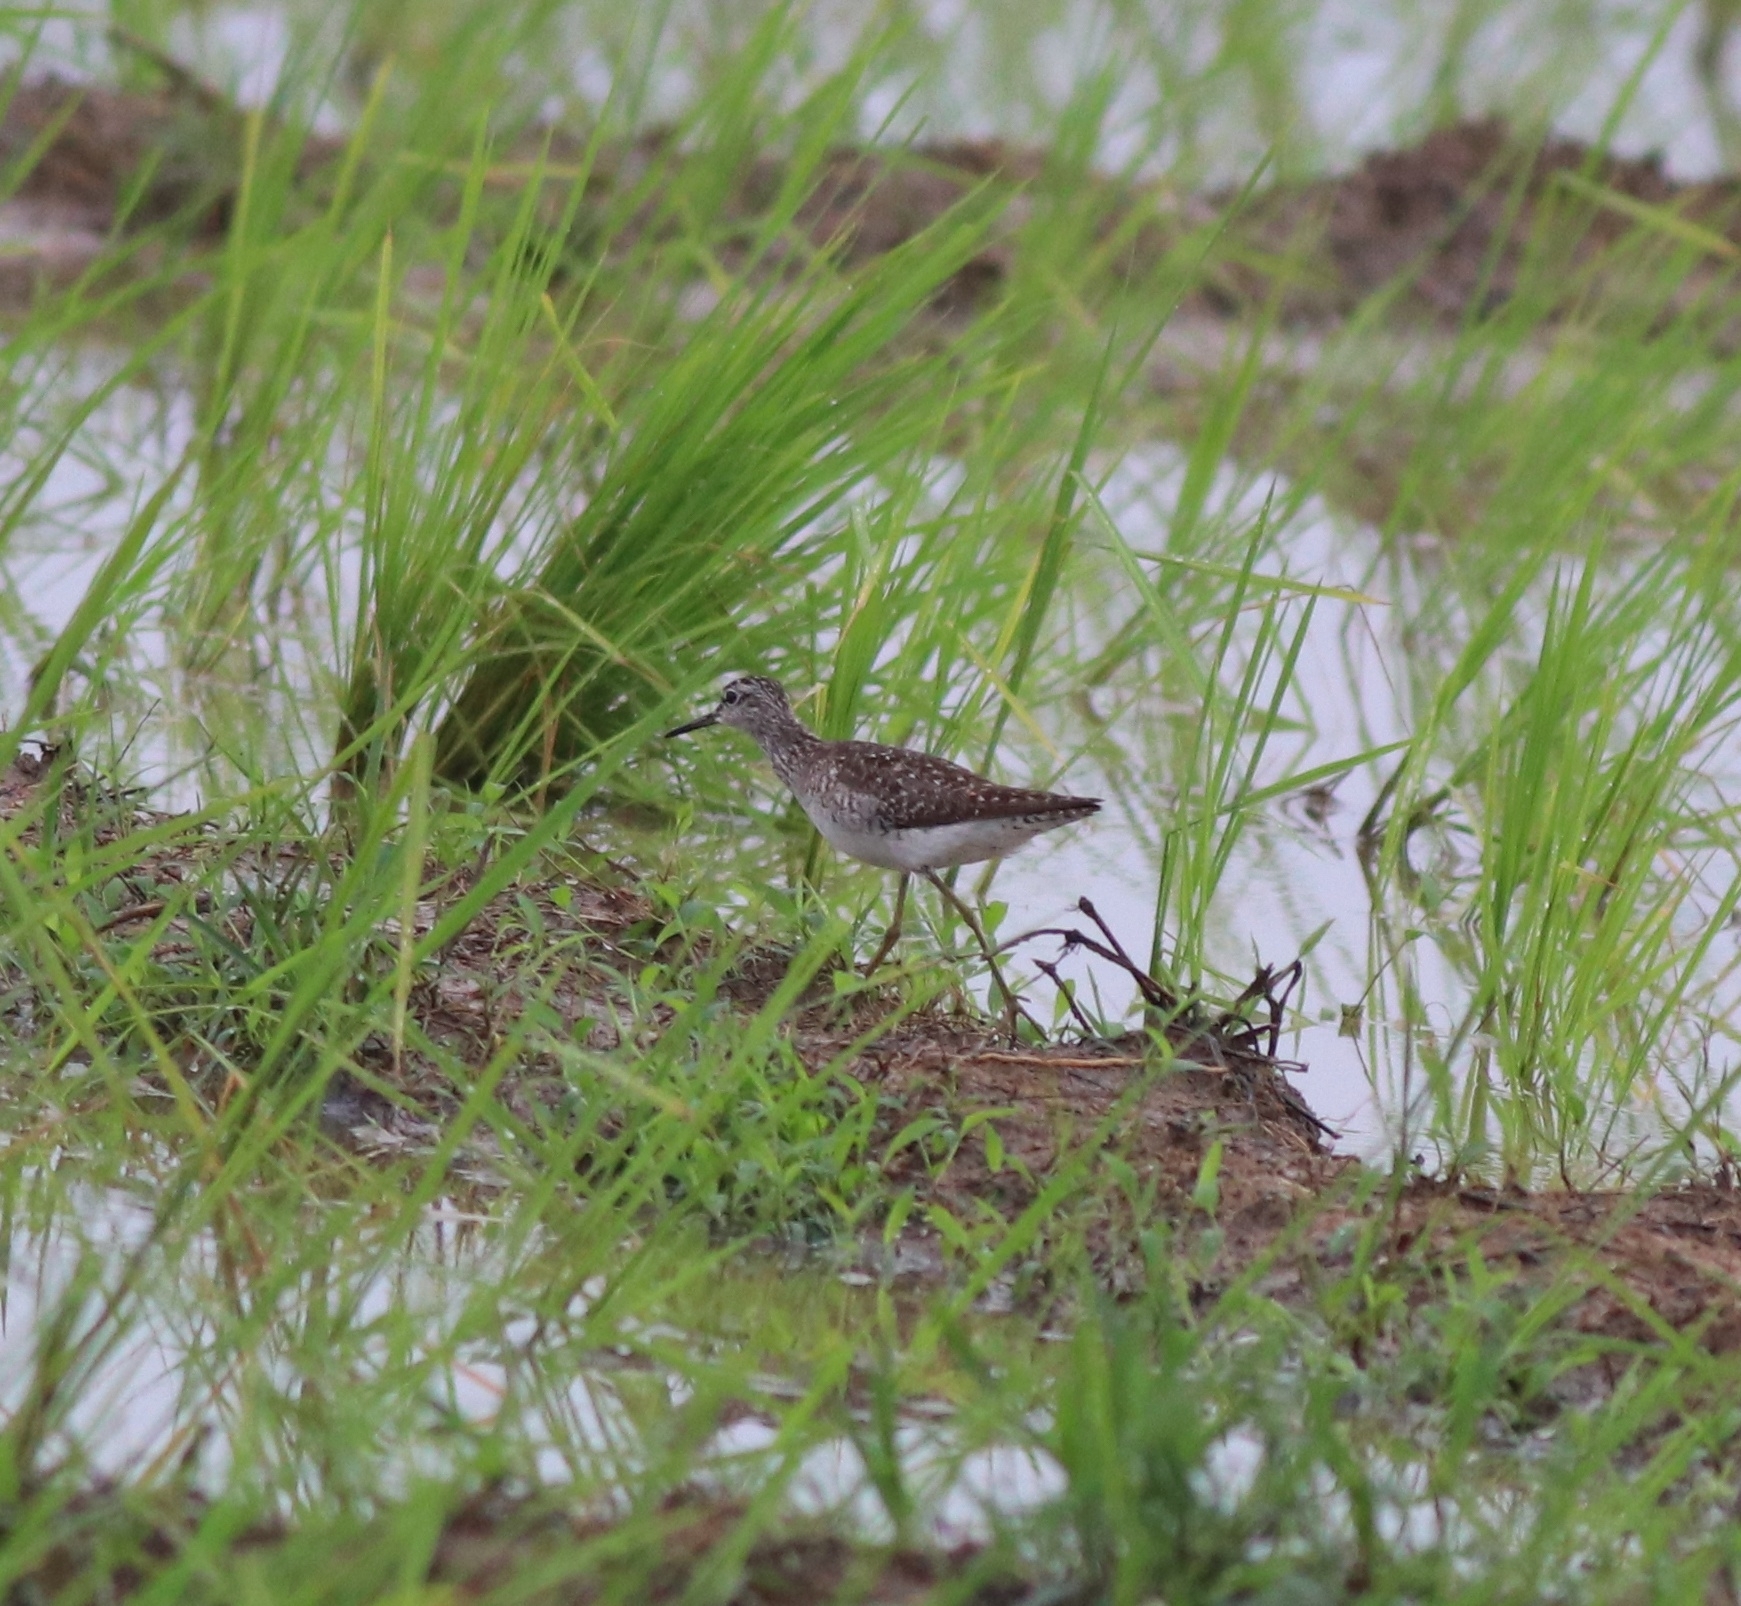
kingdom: Animalia
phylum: Chordata
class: Aves
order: Charadriiformes
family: Scolopacidae
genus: Tringa
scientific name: Tringa glareola
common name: Wood sandpiper
